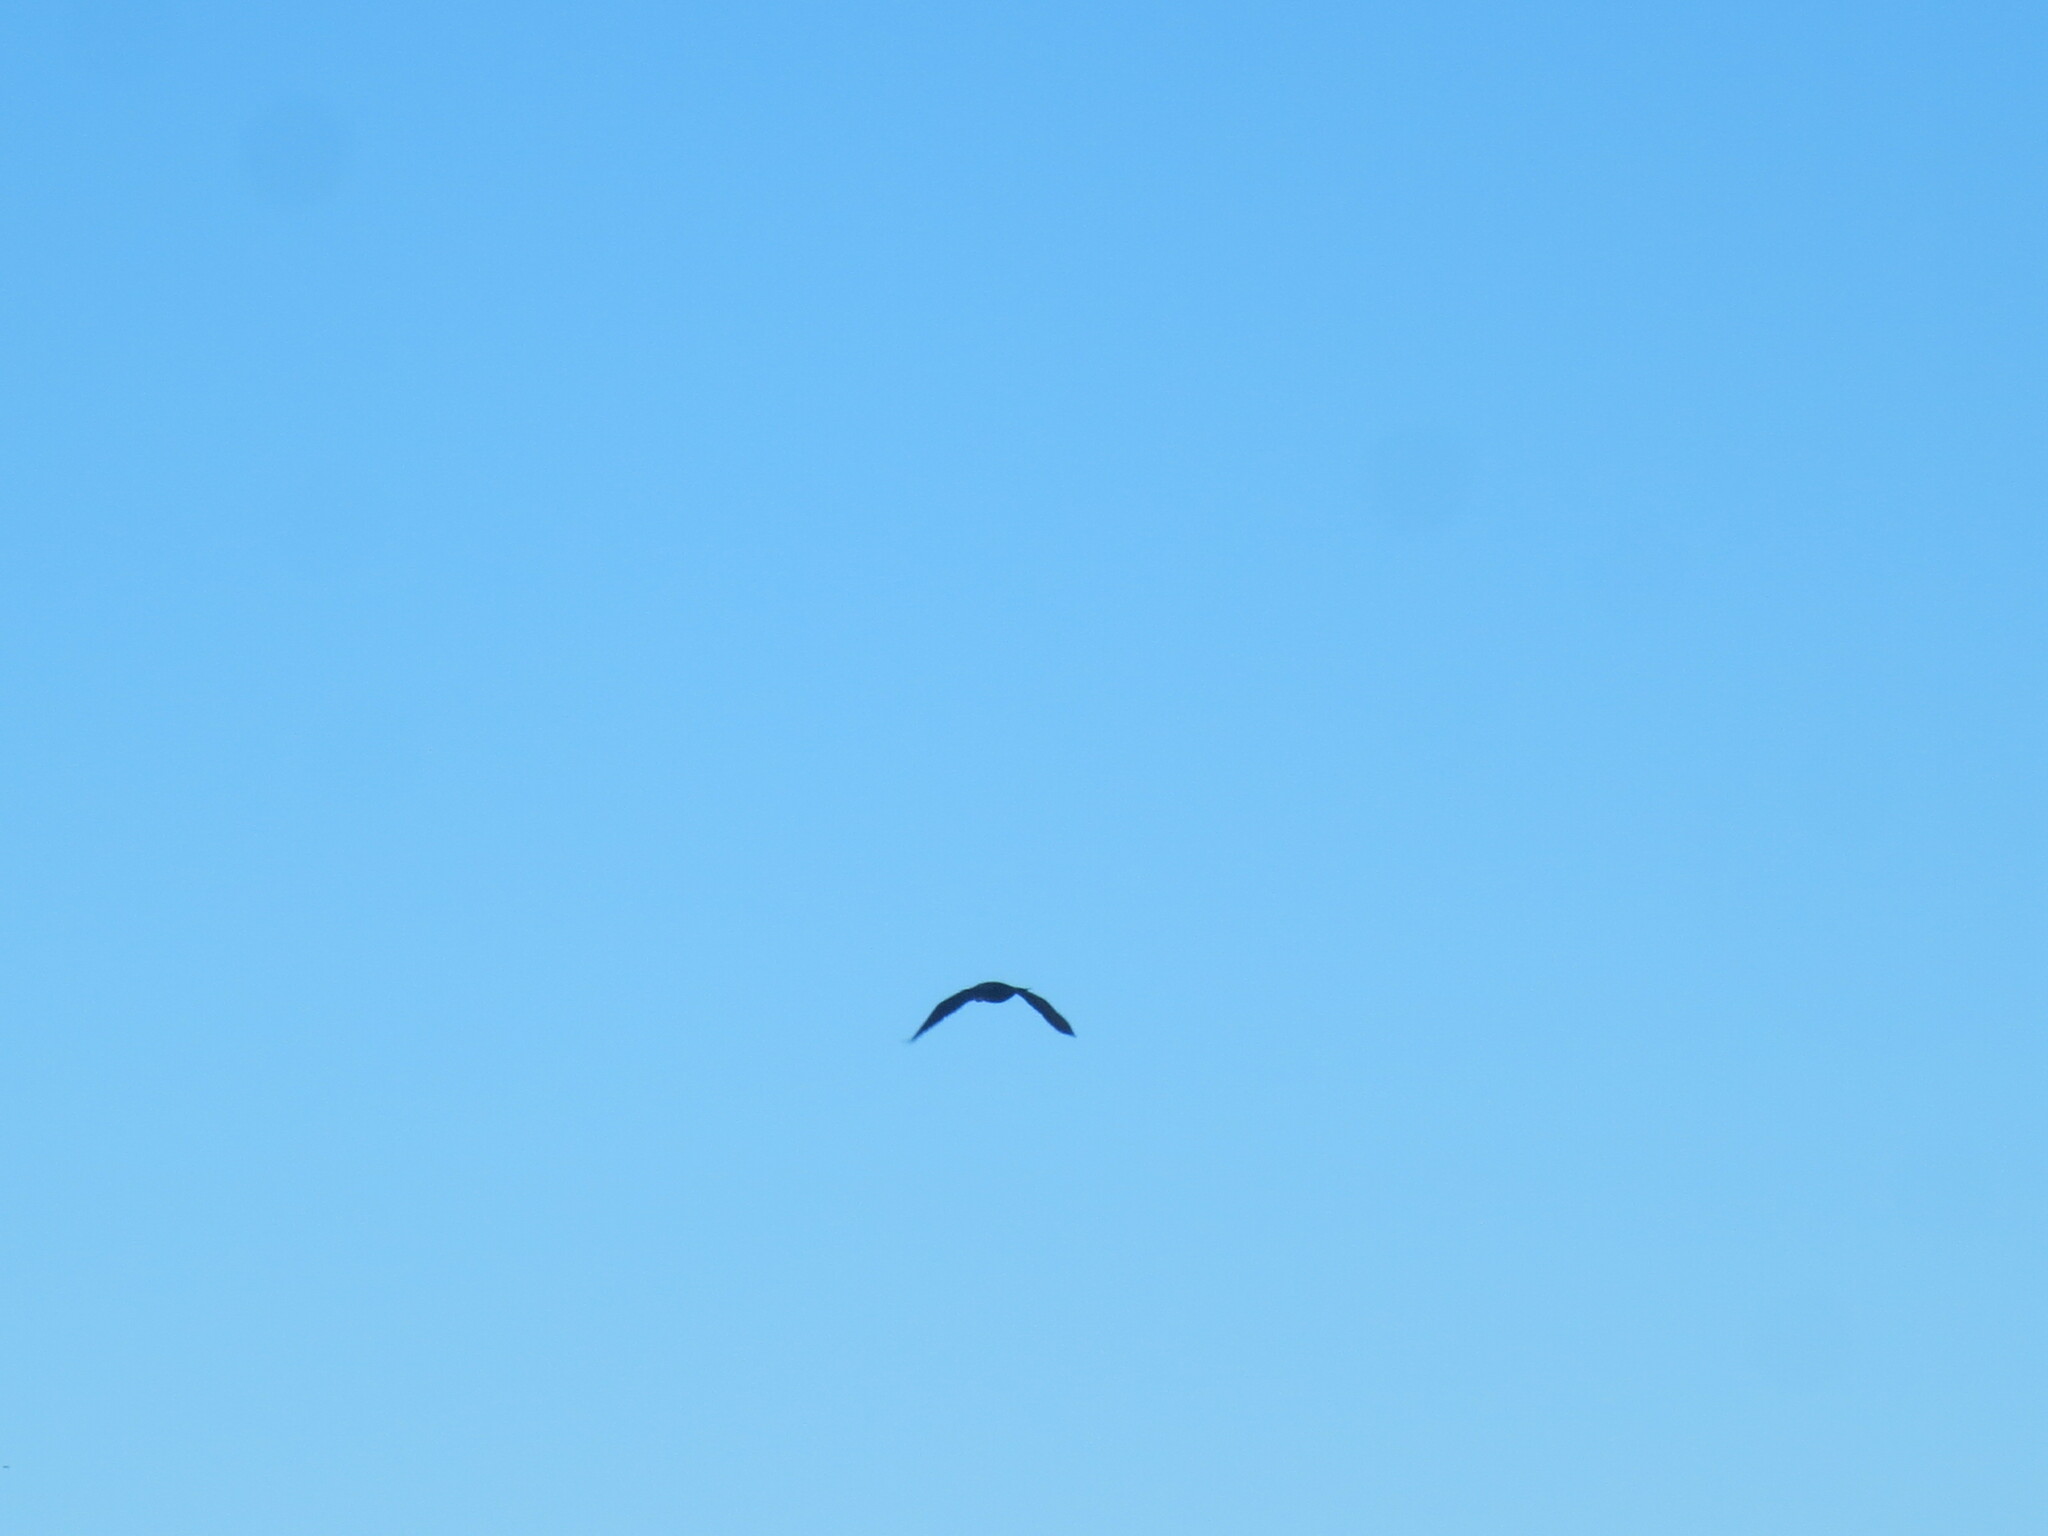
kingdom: Animalia
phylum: Chordata
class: Aves
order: Suliformes
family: Phalacrocoracidae
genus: Phalacrocorax
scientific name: Phalacrocorax auritus
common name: Double-crested cormorant
